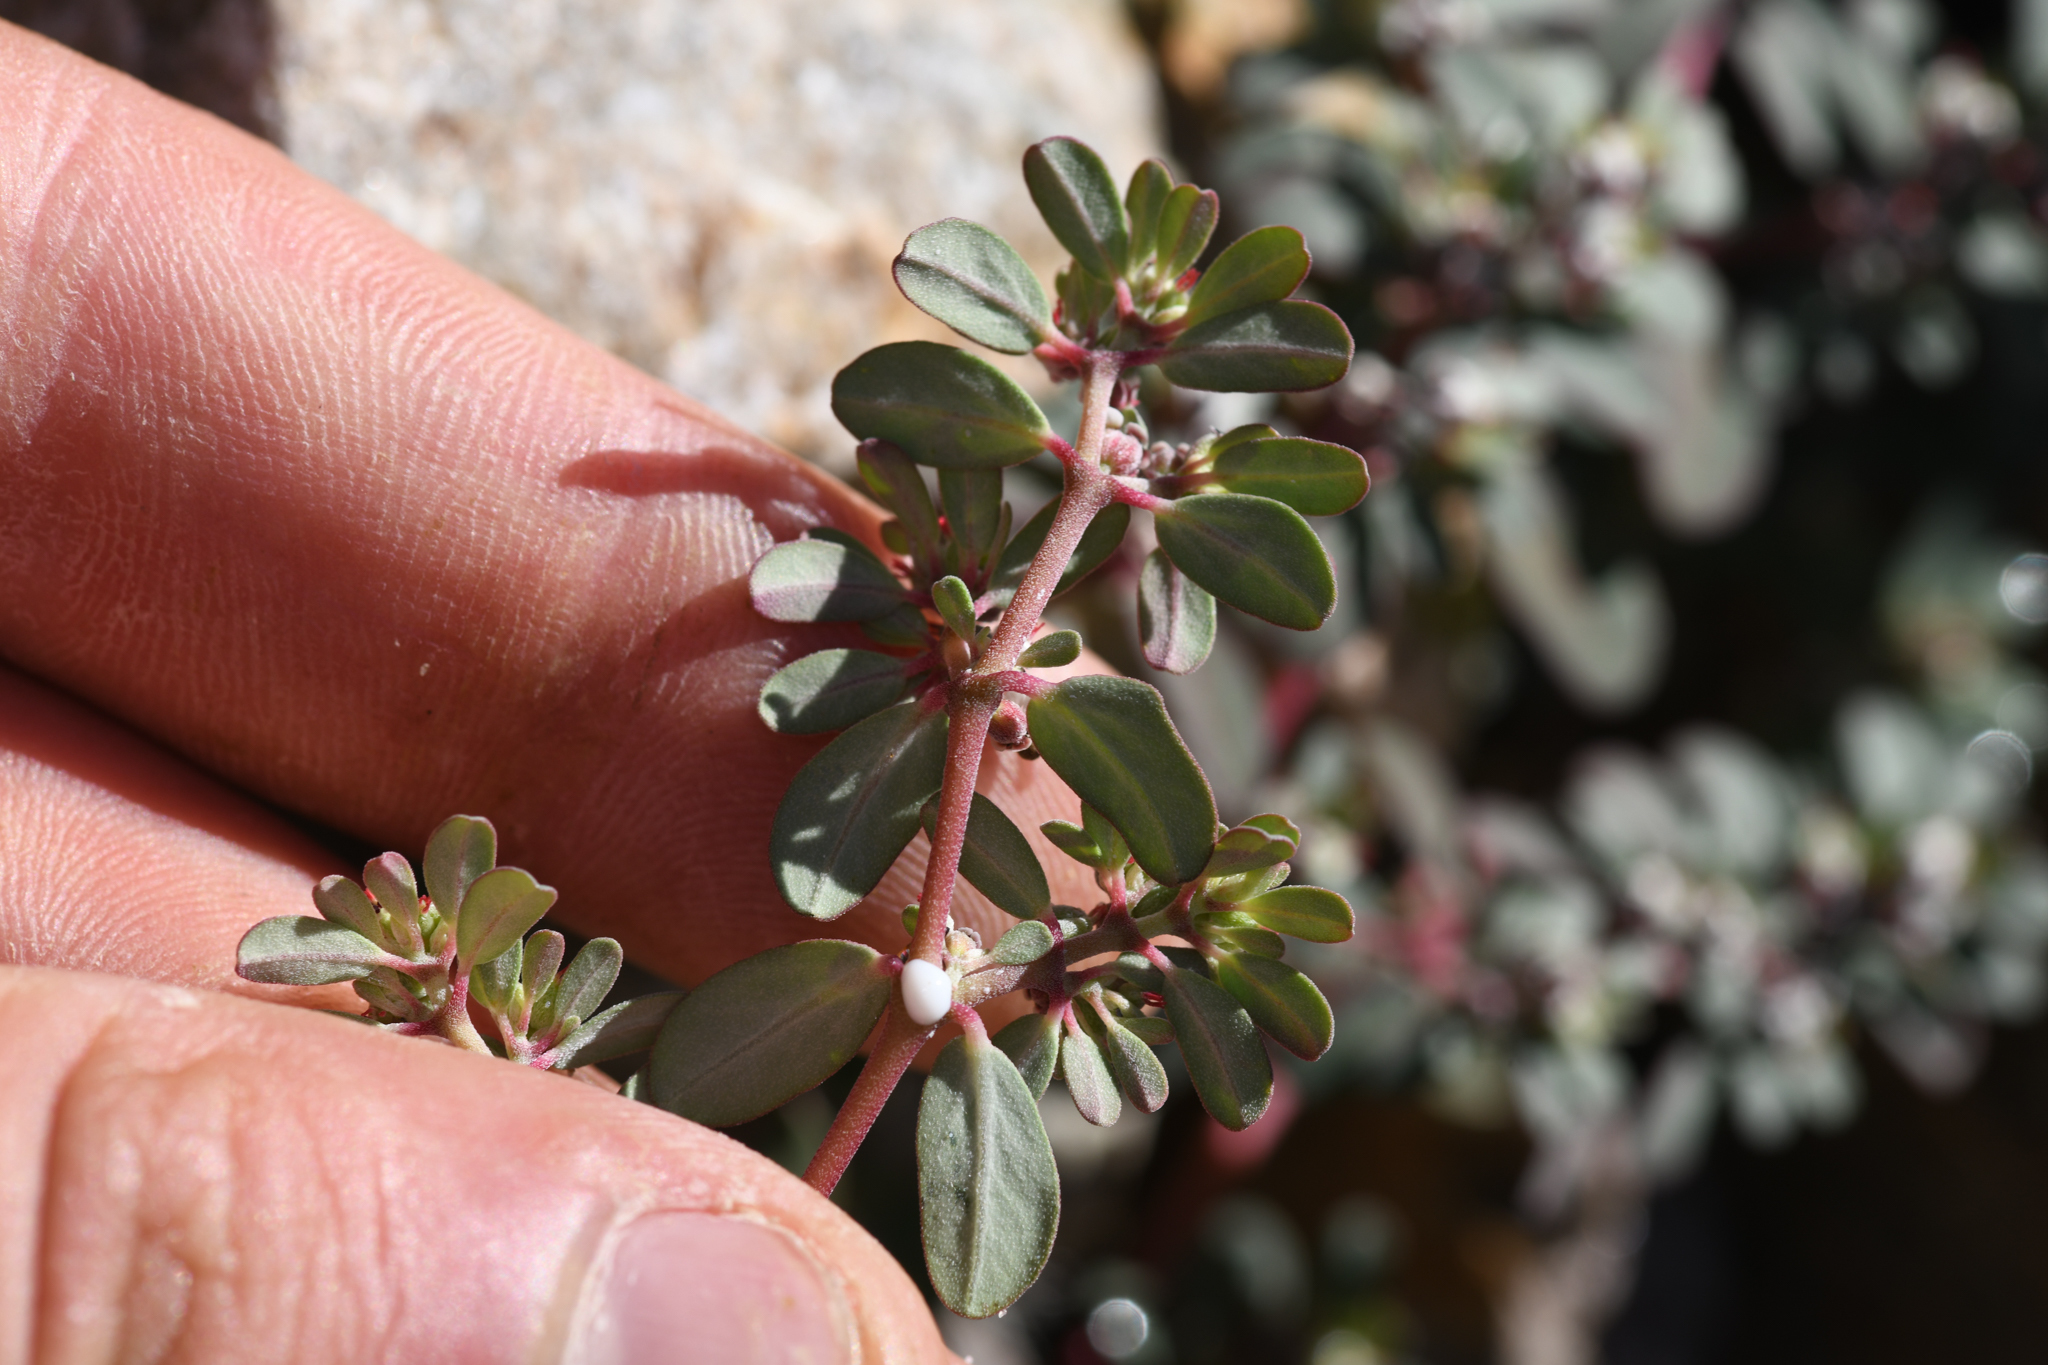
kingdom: Plantae
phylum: Tracheophyta
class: Magnoliopsida
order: Malpighiales
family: Euphorbiaceae
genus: Euphorbia
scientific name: Euphorbia pediculifera
